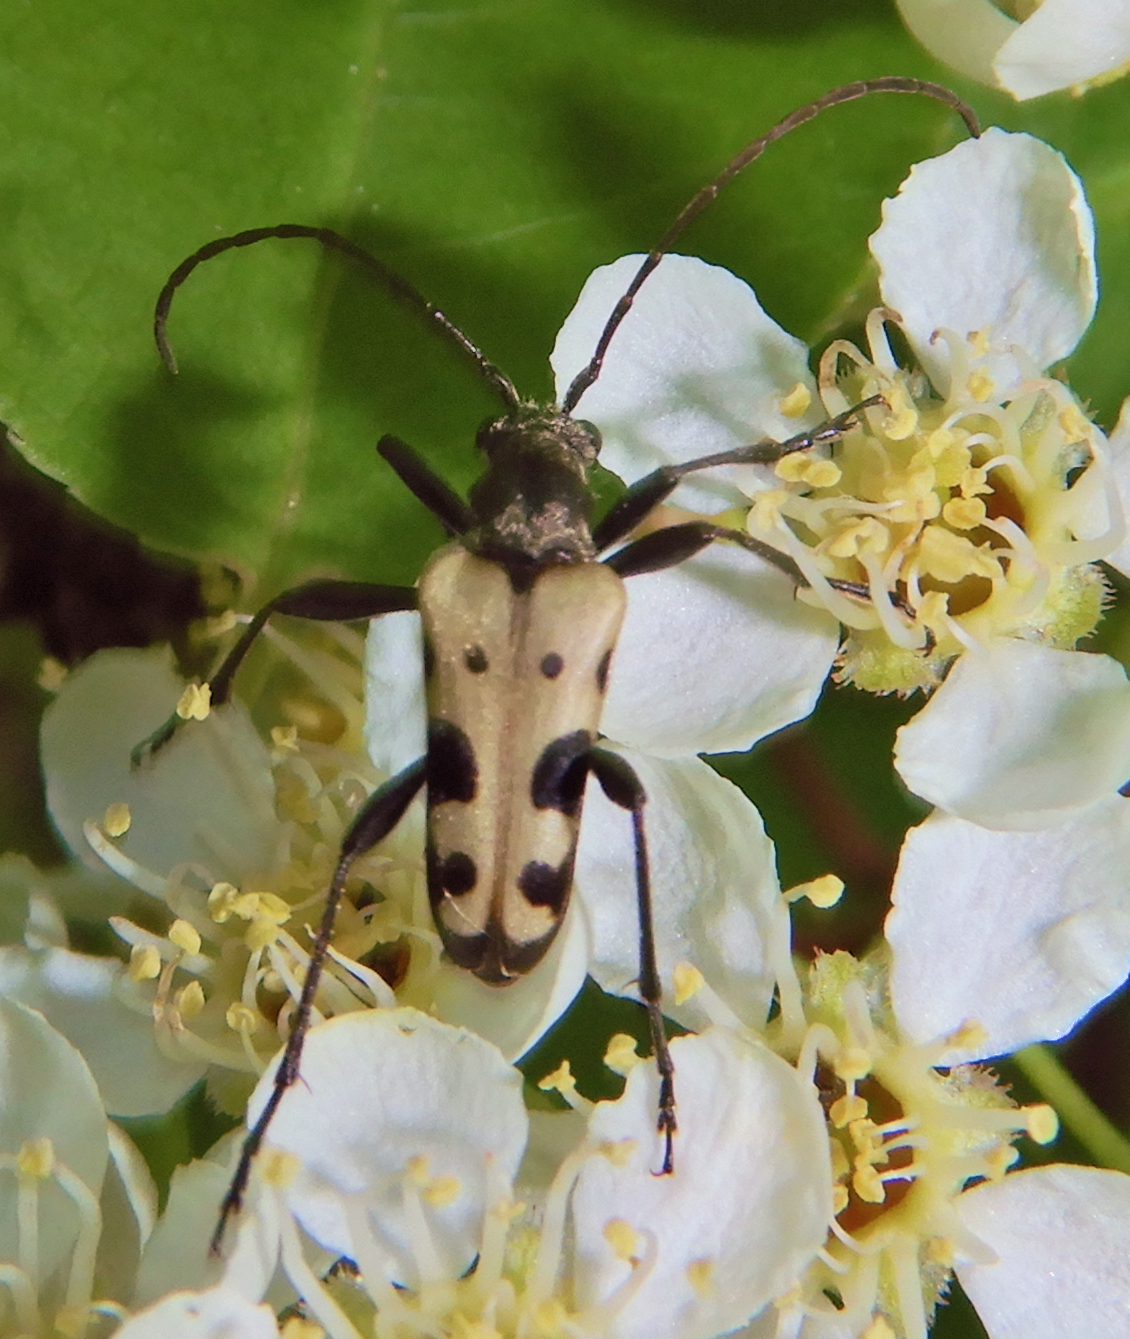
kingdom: Animalia
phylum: Arthropoda
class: Insecta
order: Coleoptera
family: Cerambycidae
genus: Evodinus
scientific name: Evodinus monticola
